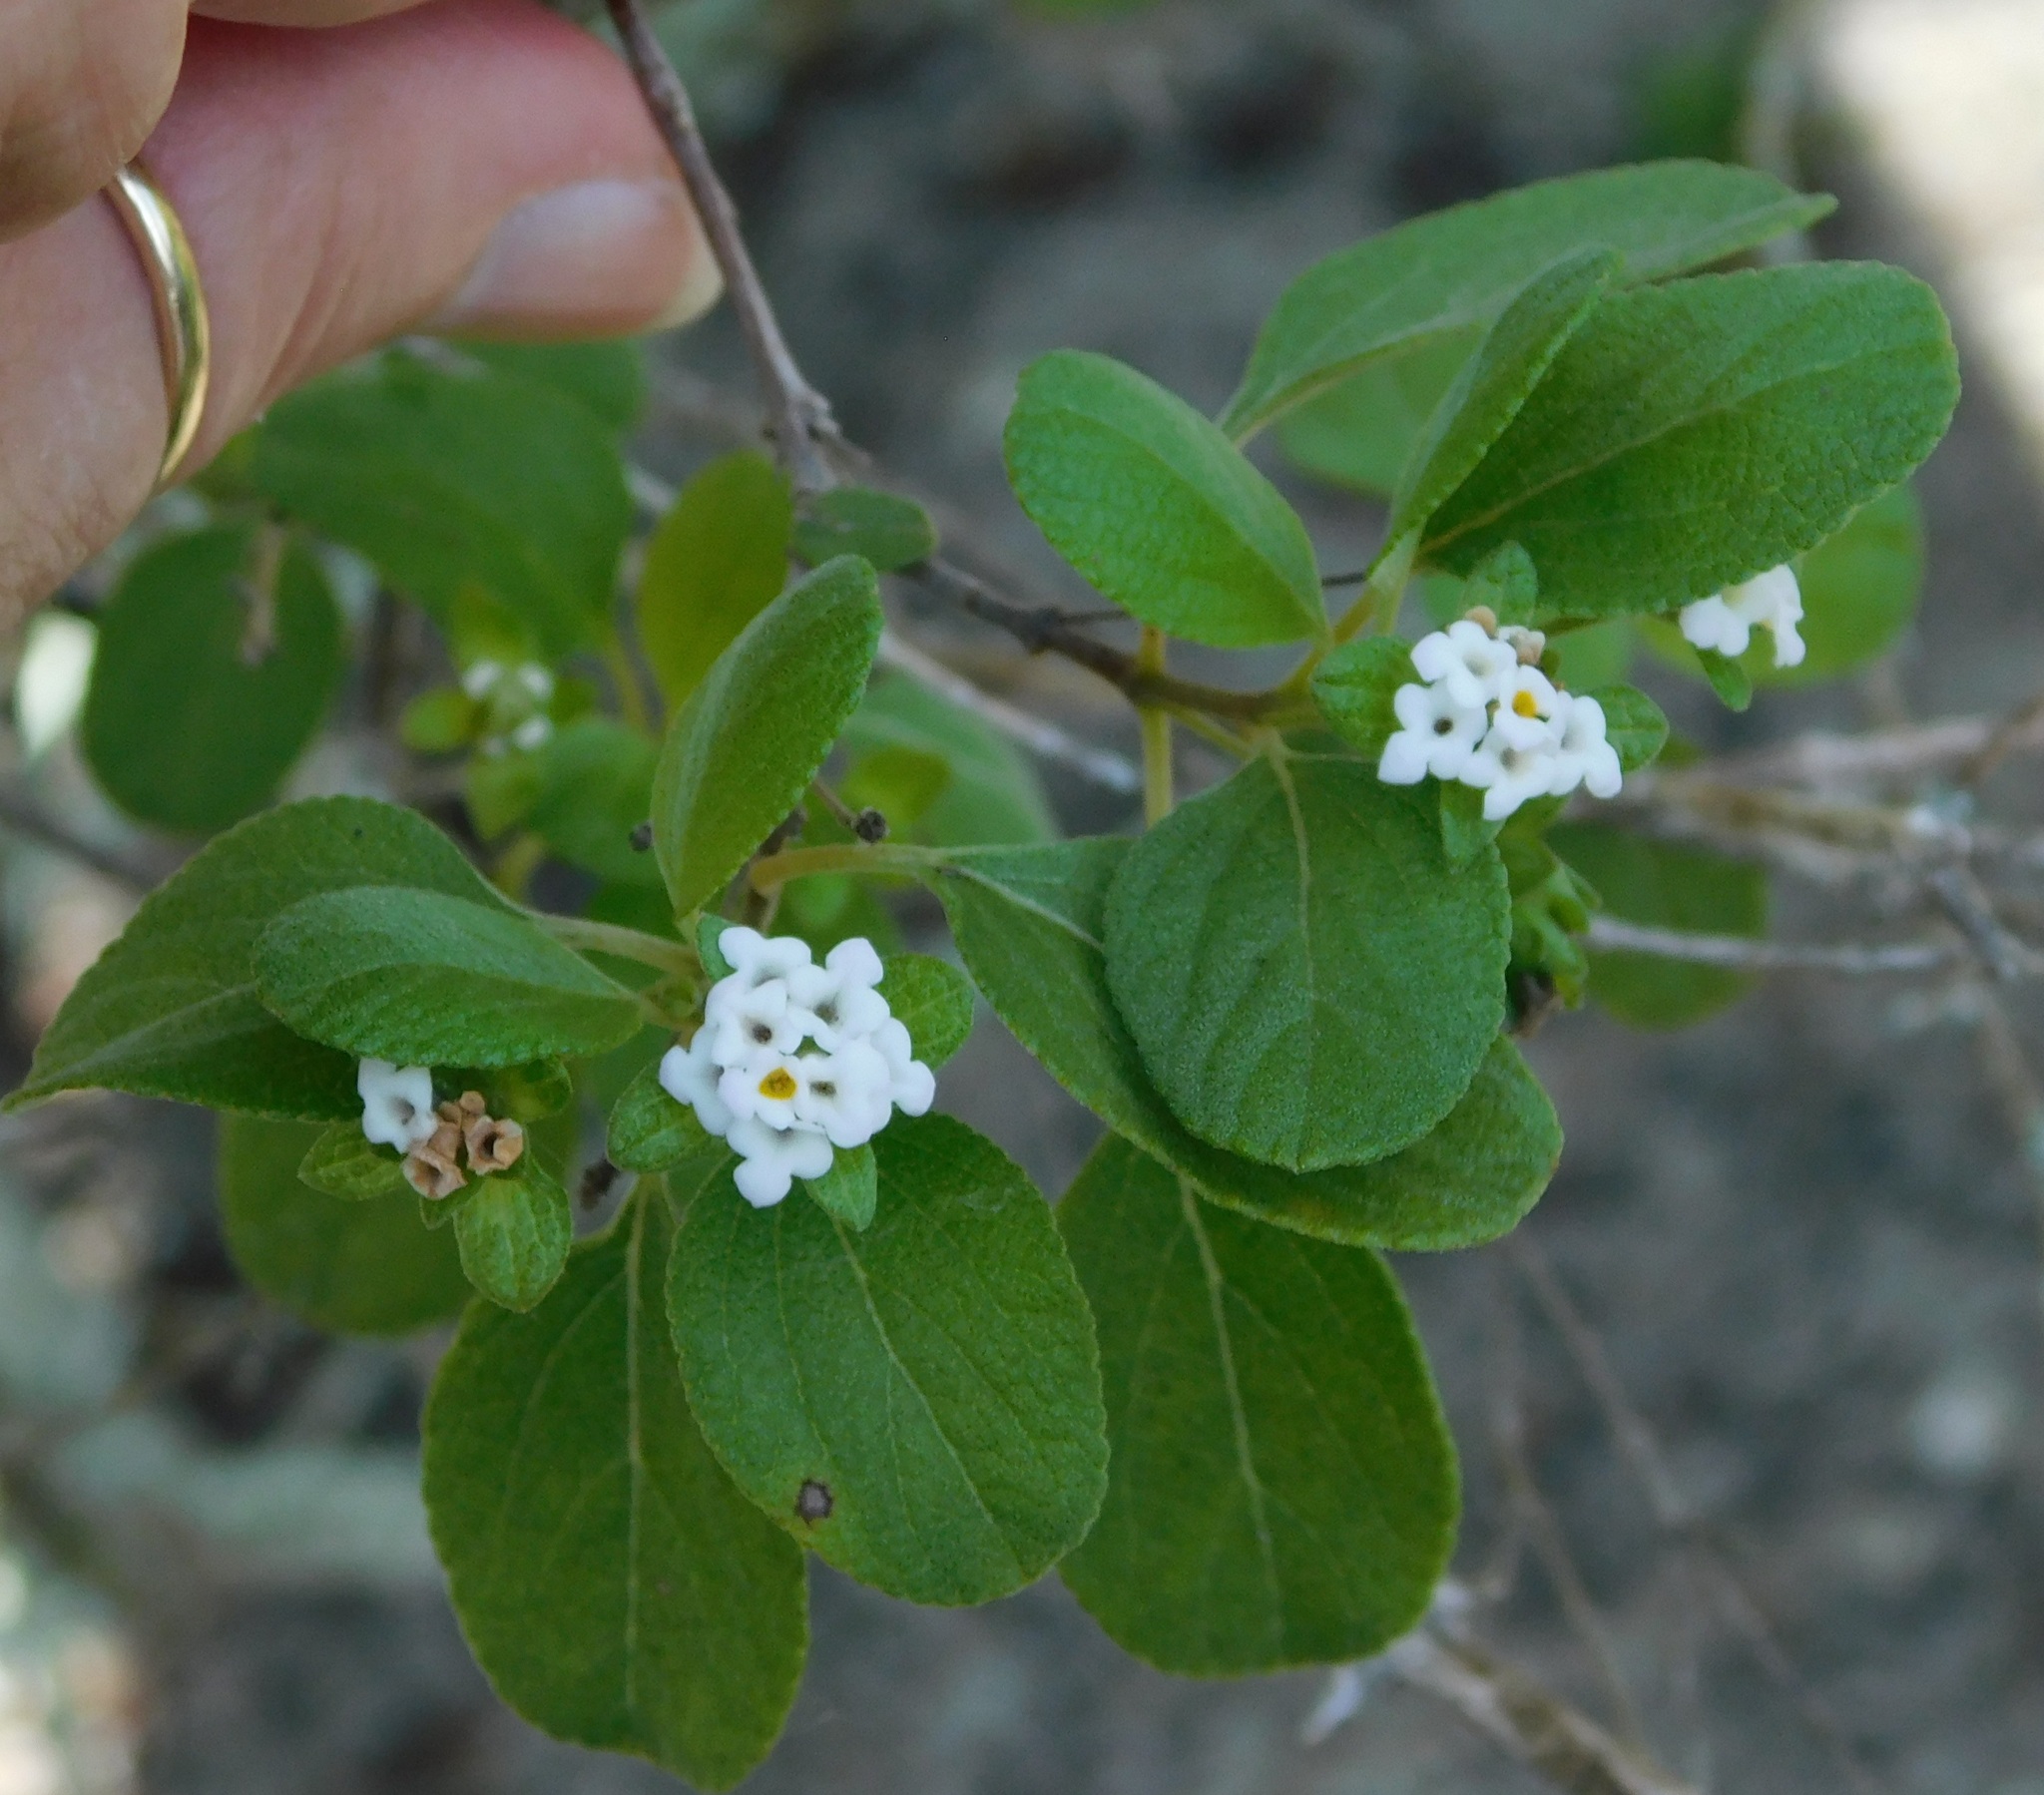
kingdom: Plantae
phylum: Tracheophyta
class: Magnoliopsida
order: Lamiales
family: Verbenaceae
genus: Lantana
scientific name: Lantana involucrata
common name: Black sage
